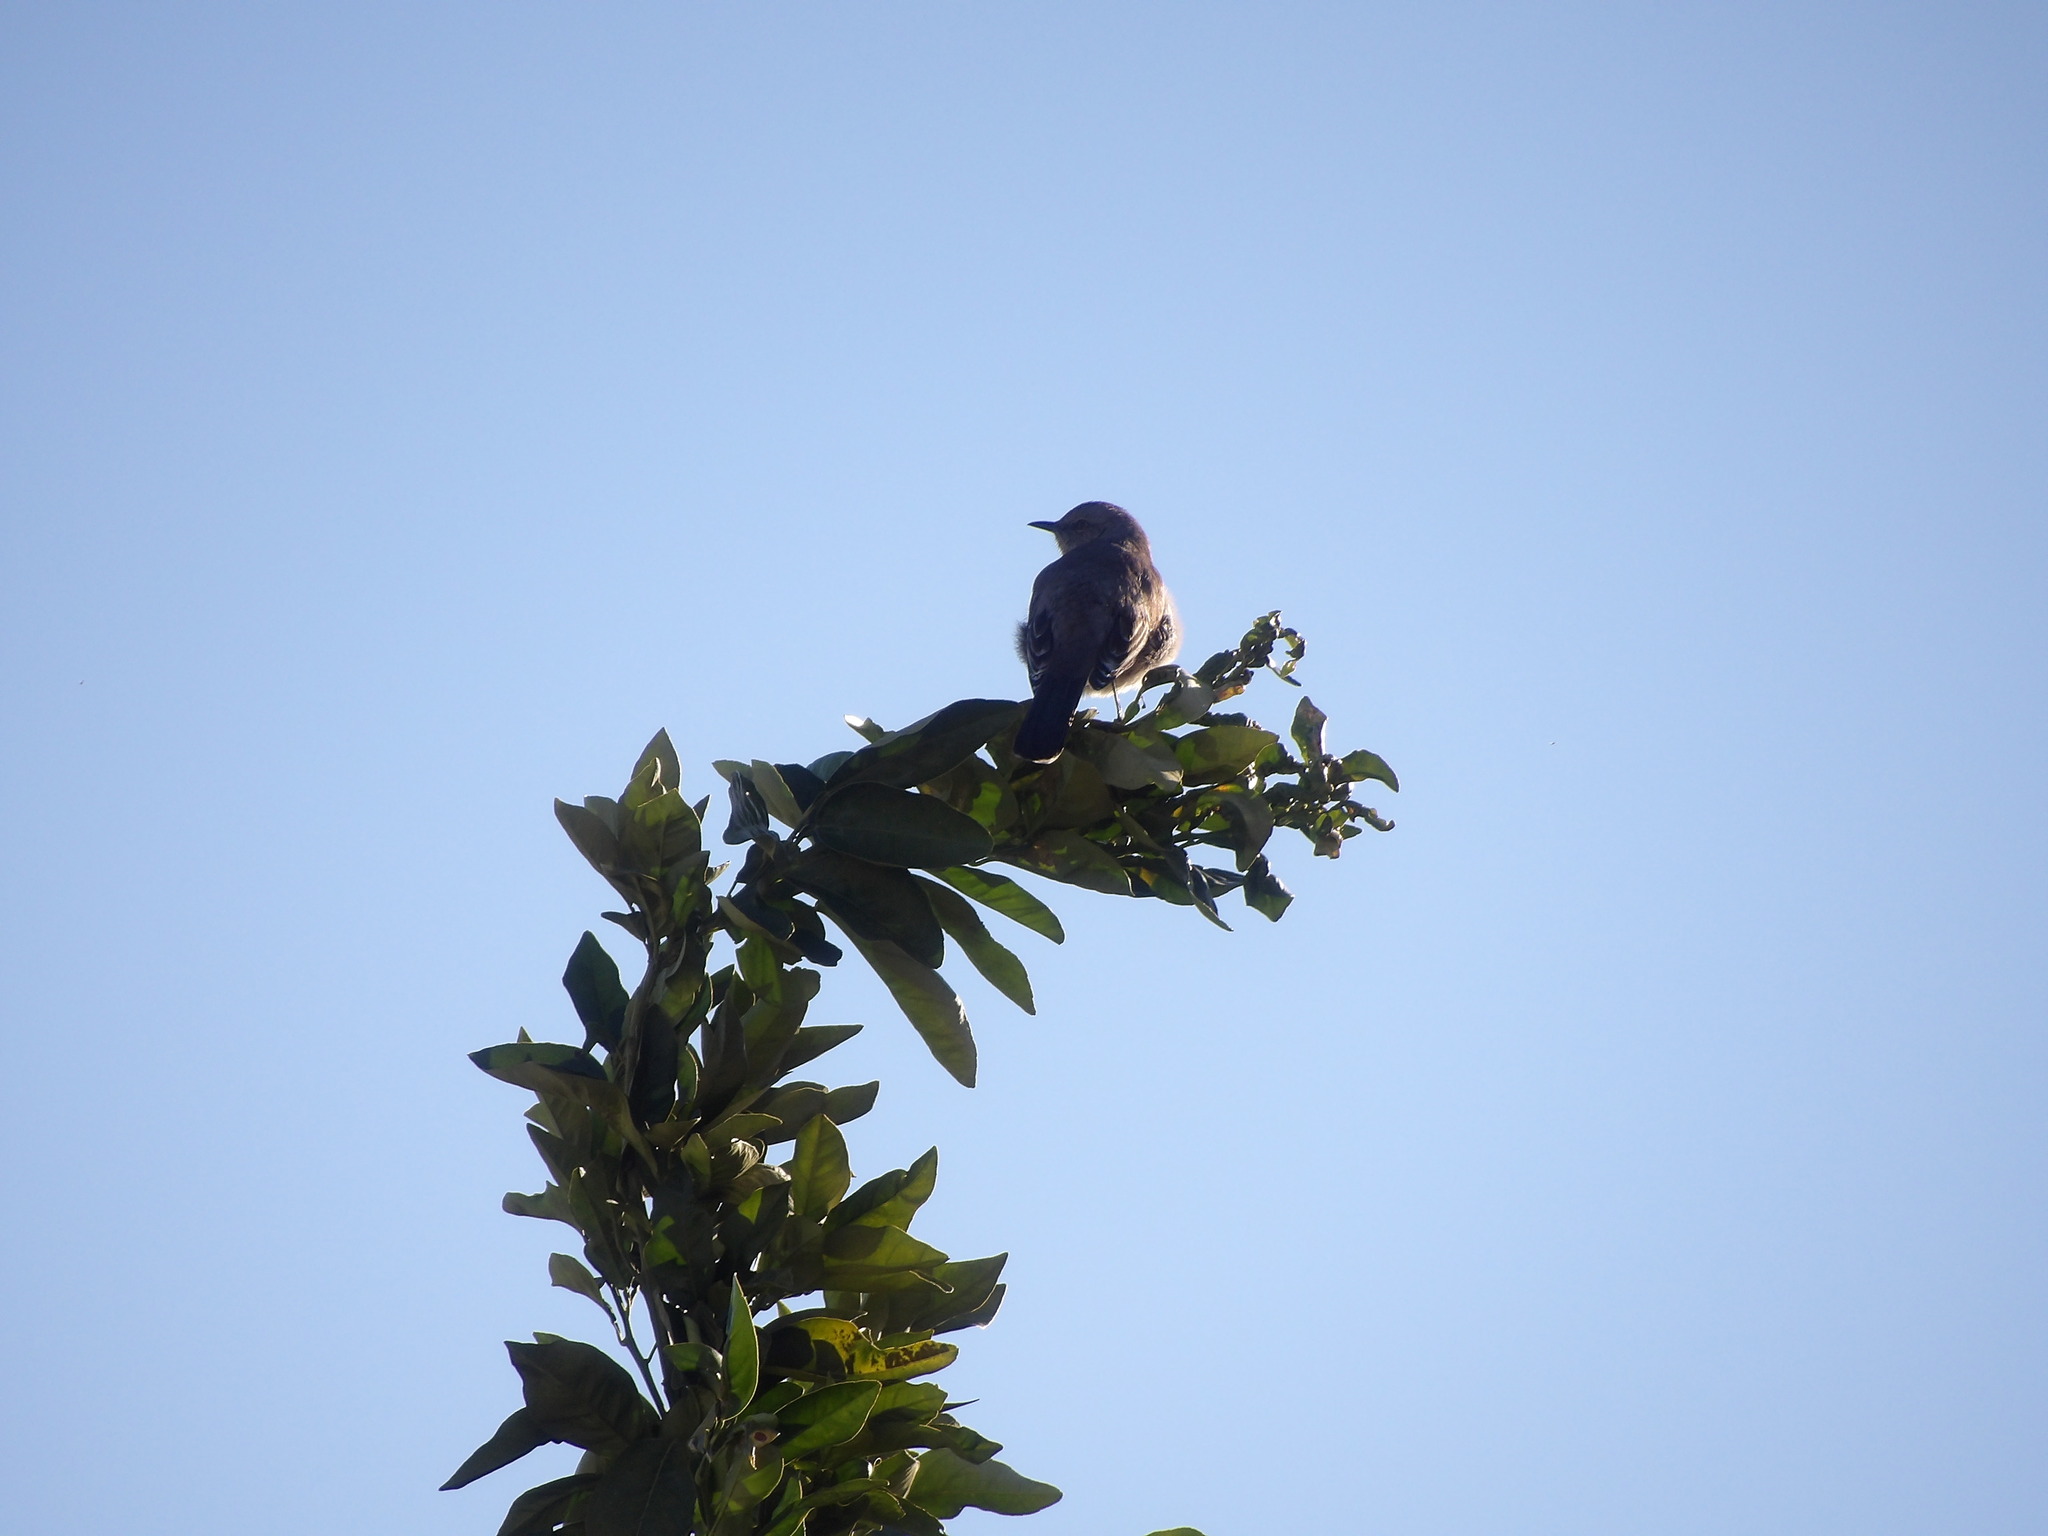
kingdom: Animalia
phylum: Chordata
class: Aves
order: Passeriformes
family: Mimidae
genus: Mimus
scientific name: Mimus polyglottos
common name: Northern mockingbird
